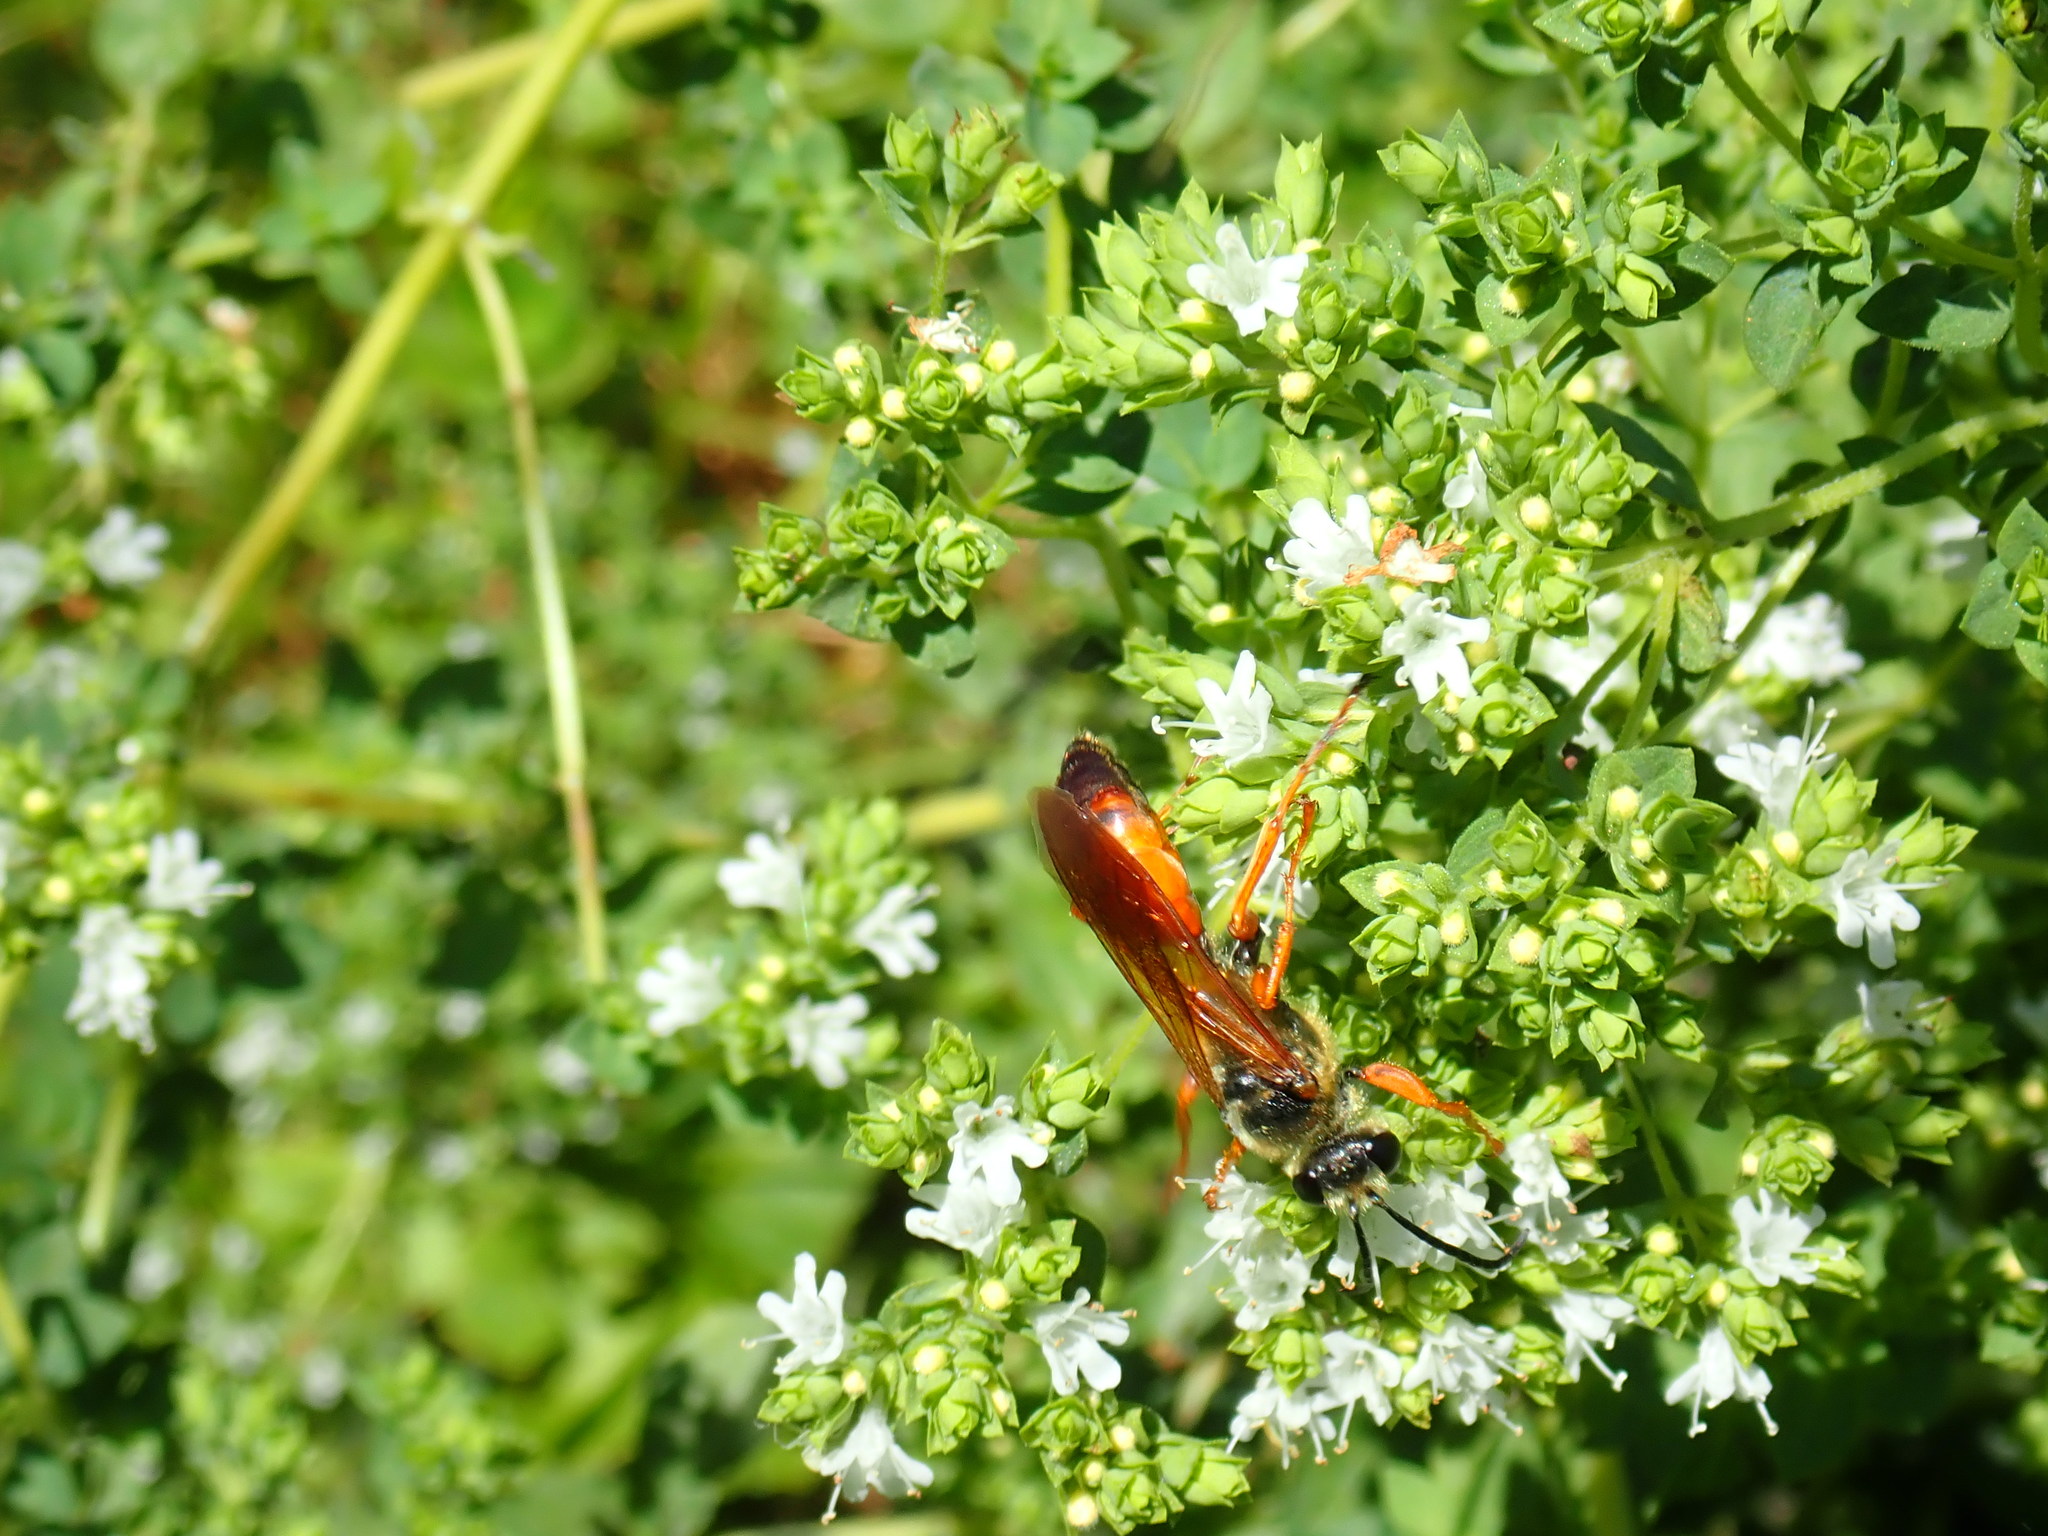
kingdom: Animalia
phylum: Arthropoda
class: Insecta
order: Hymenoptera
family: Sphecidae
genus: Sphex
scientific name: Sphex ichneumoneus
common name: Great golden digger wasp
